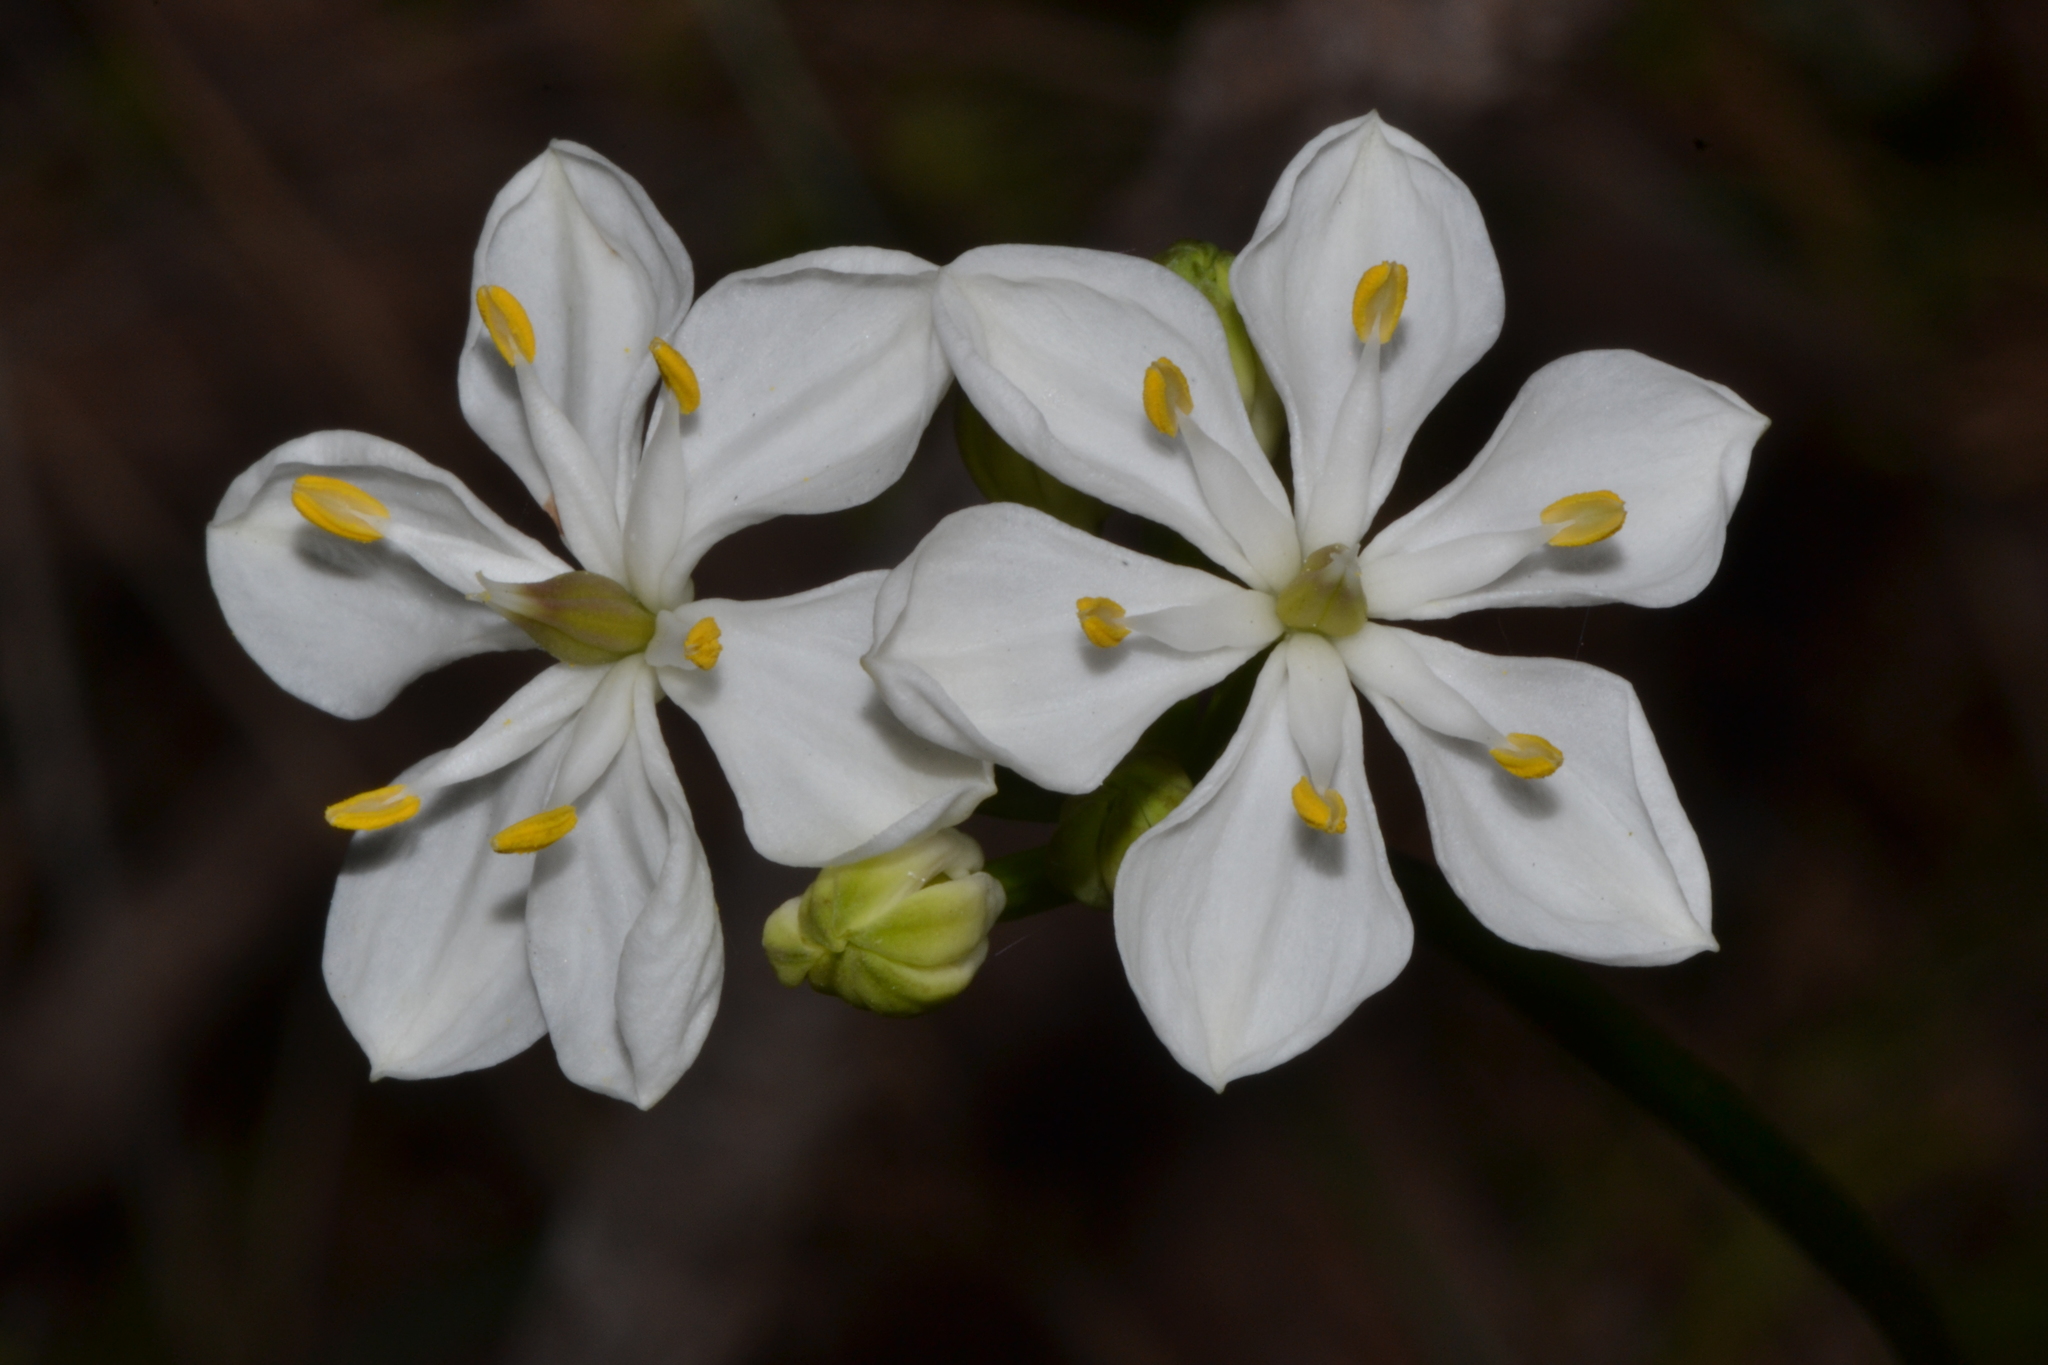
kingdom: Plantae
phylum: Tracheophyta
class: Liliopsida
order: Liliales
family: Colchicaceae
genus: Burchardia
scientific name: Burchardia congesta
